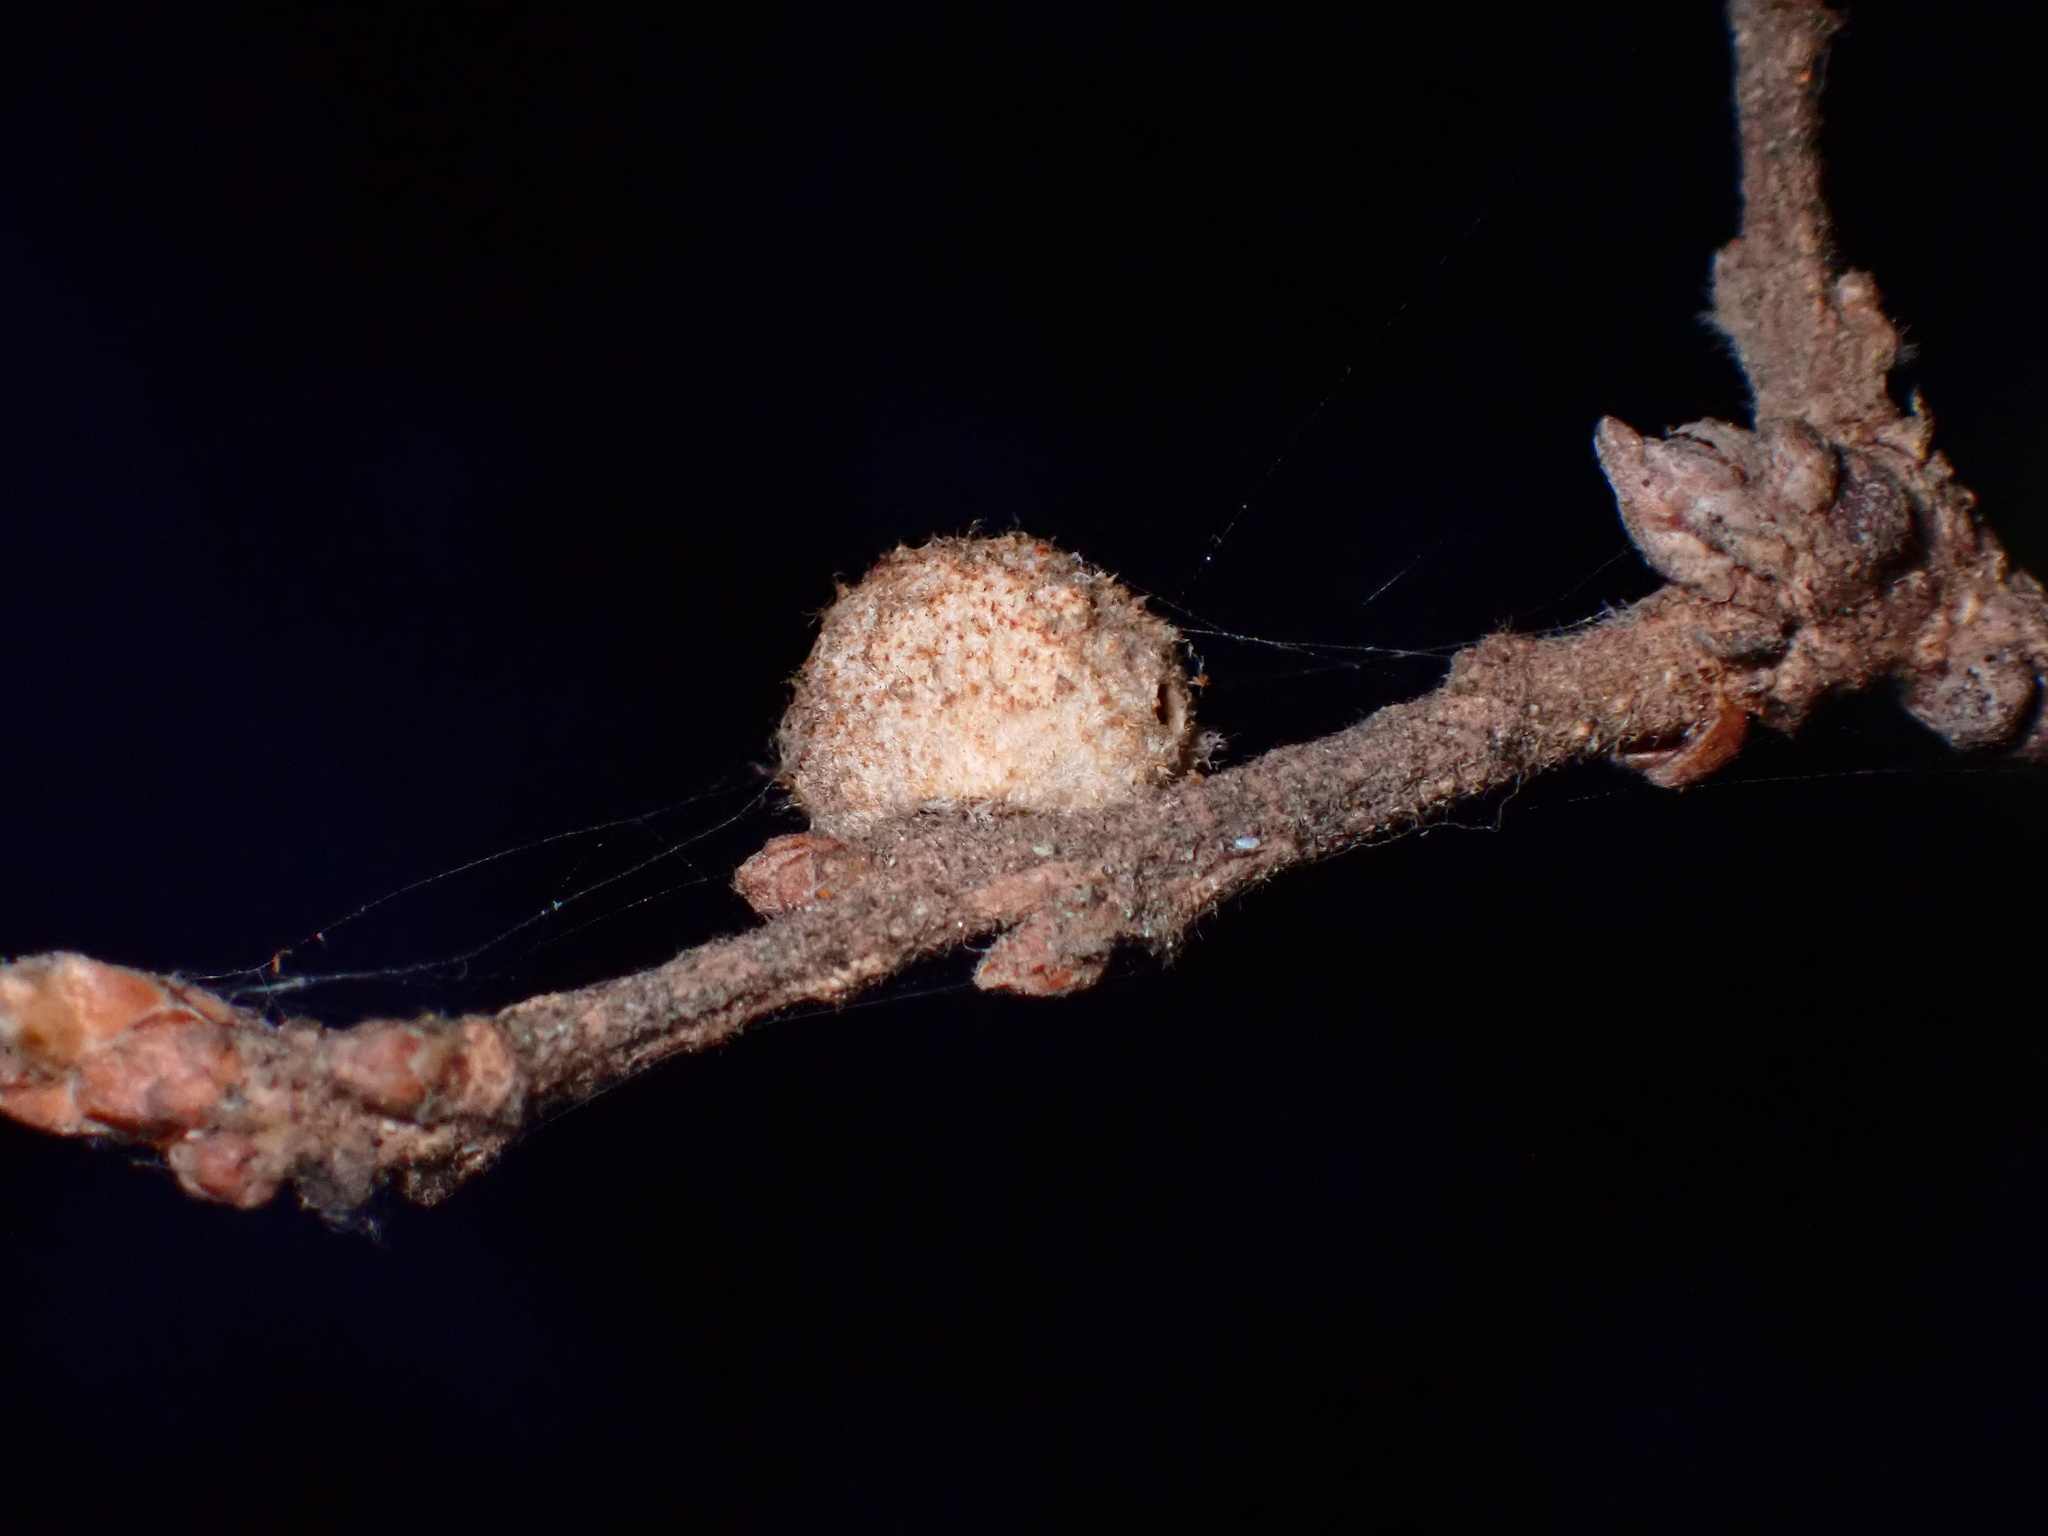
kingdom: Animalia
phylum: Arthropoda
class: Insecta
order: Hymenoptera
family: Cynipidae
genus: Burnettweldia
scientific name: Burnettweldia
